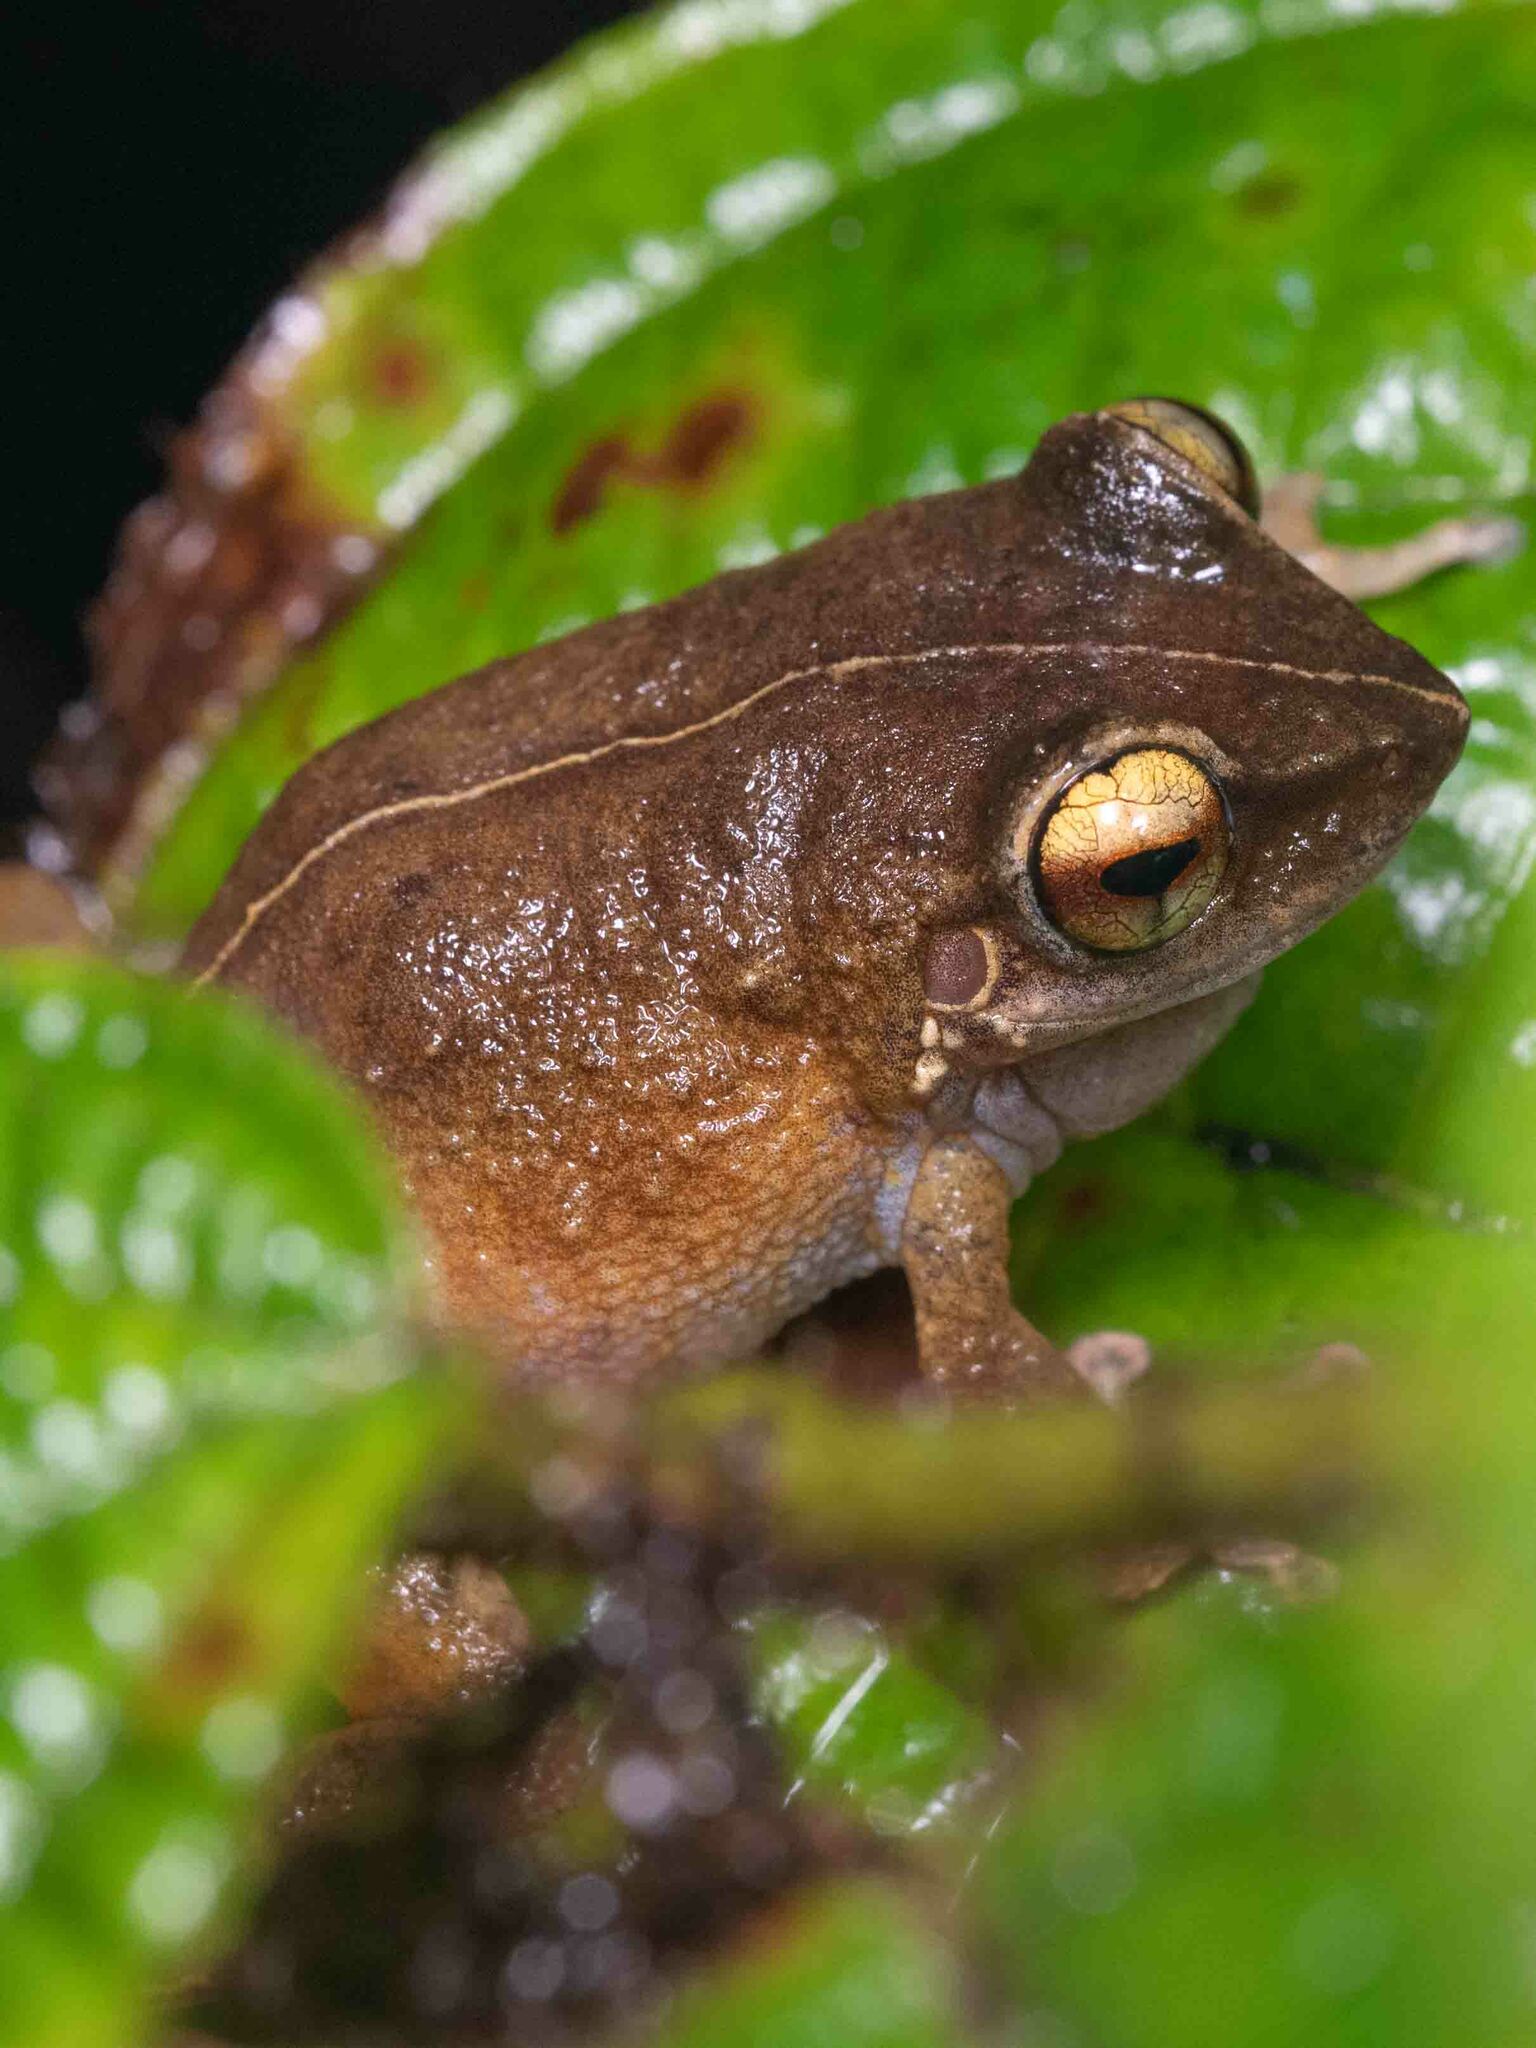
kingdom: Animalia
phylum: Chordata
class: Amphibia
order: Anura
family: Eleutherodactylidae
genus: Eleutherodactylus
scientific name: Eleutherodactylus coqui
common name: Coqui frog
